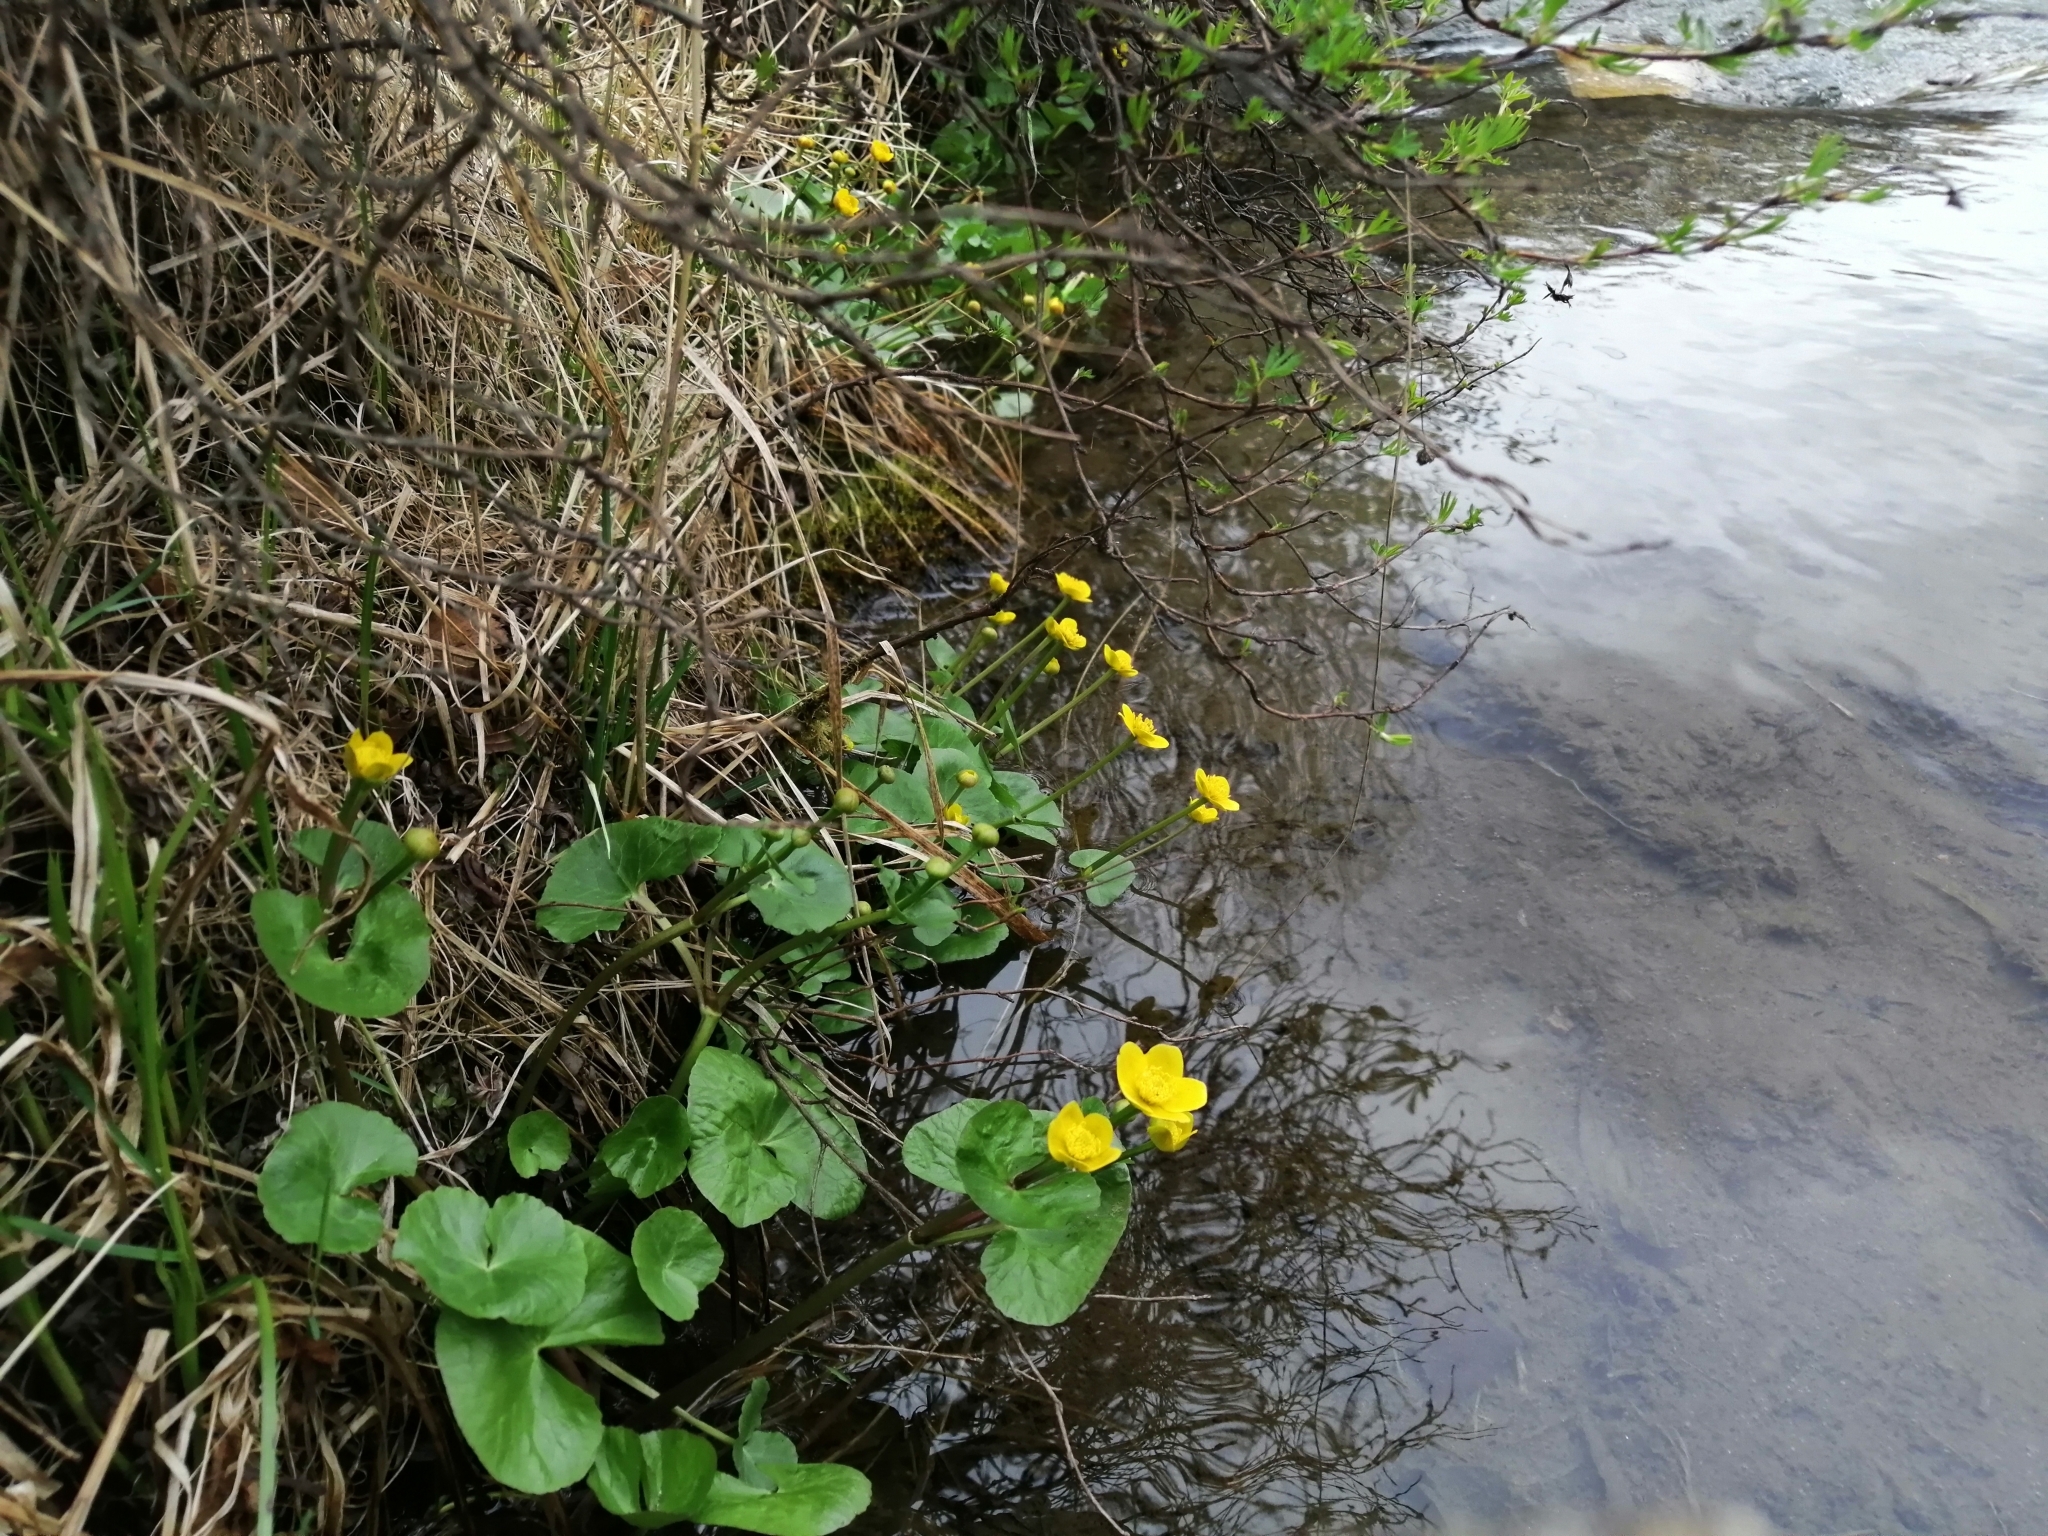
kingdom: Plantae
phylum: Tracheophyta
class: Magnoliopsida
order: Ranunculales
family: Ranunculaceae
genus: Caltha
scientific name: Caltha palustris
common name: Marsh marigold
